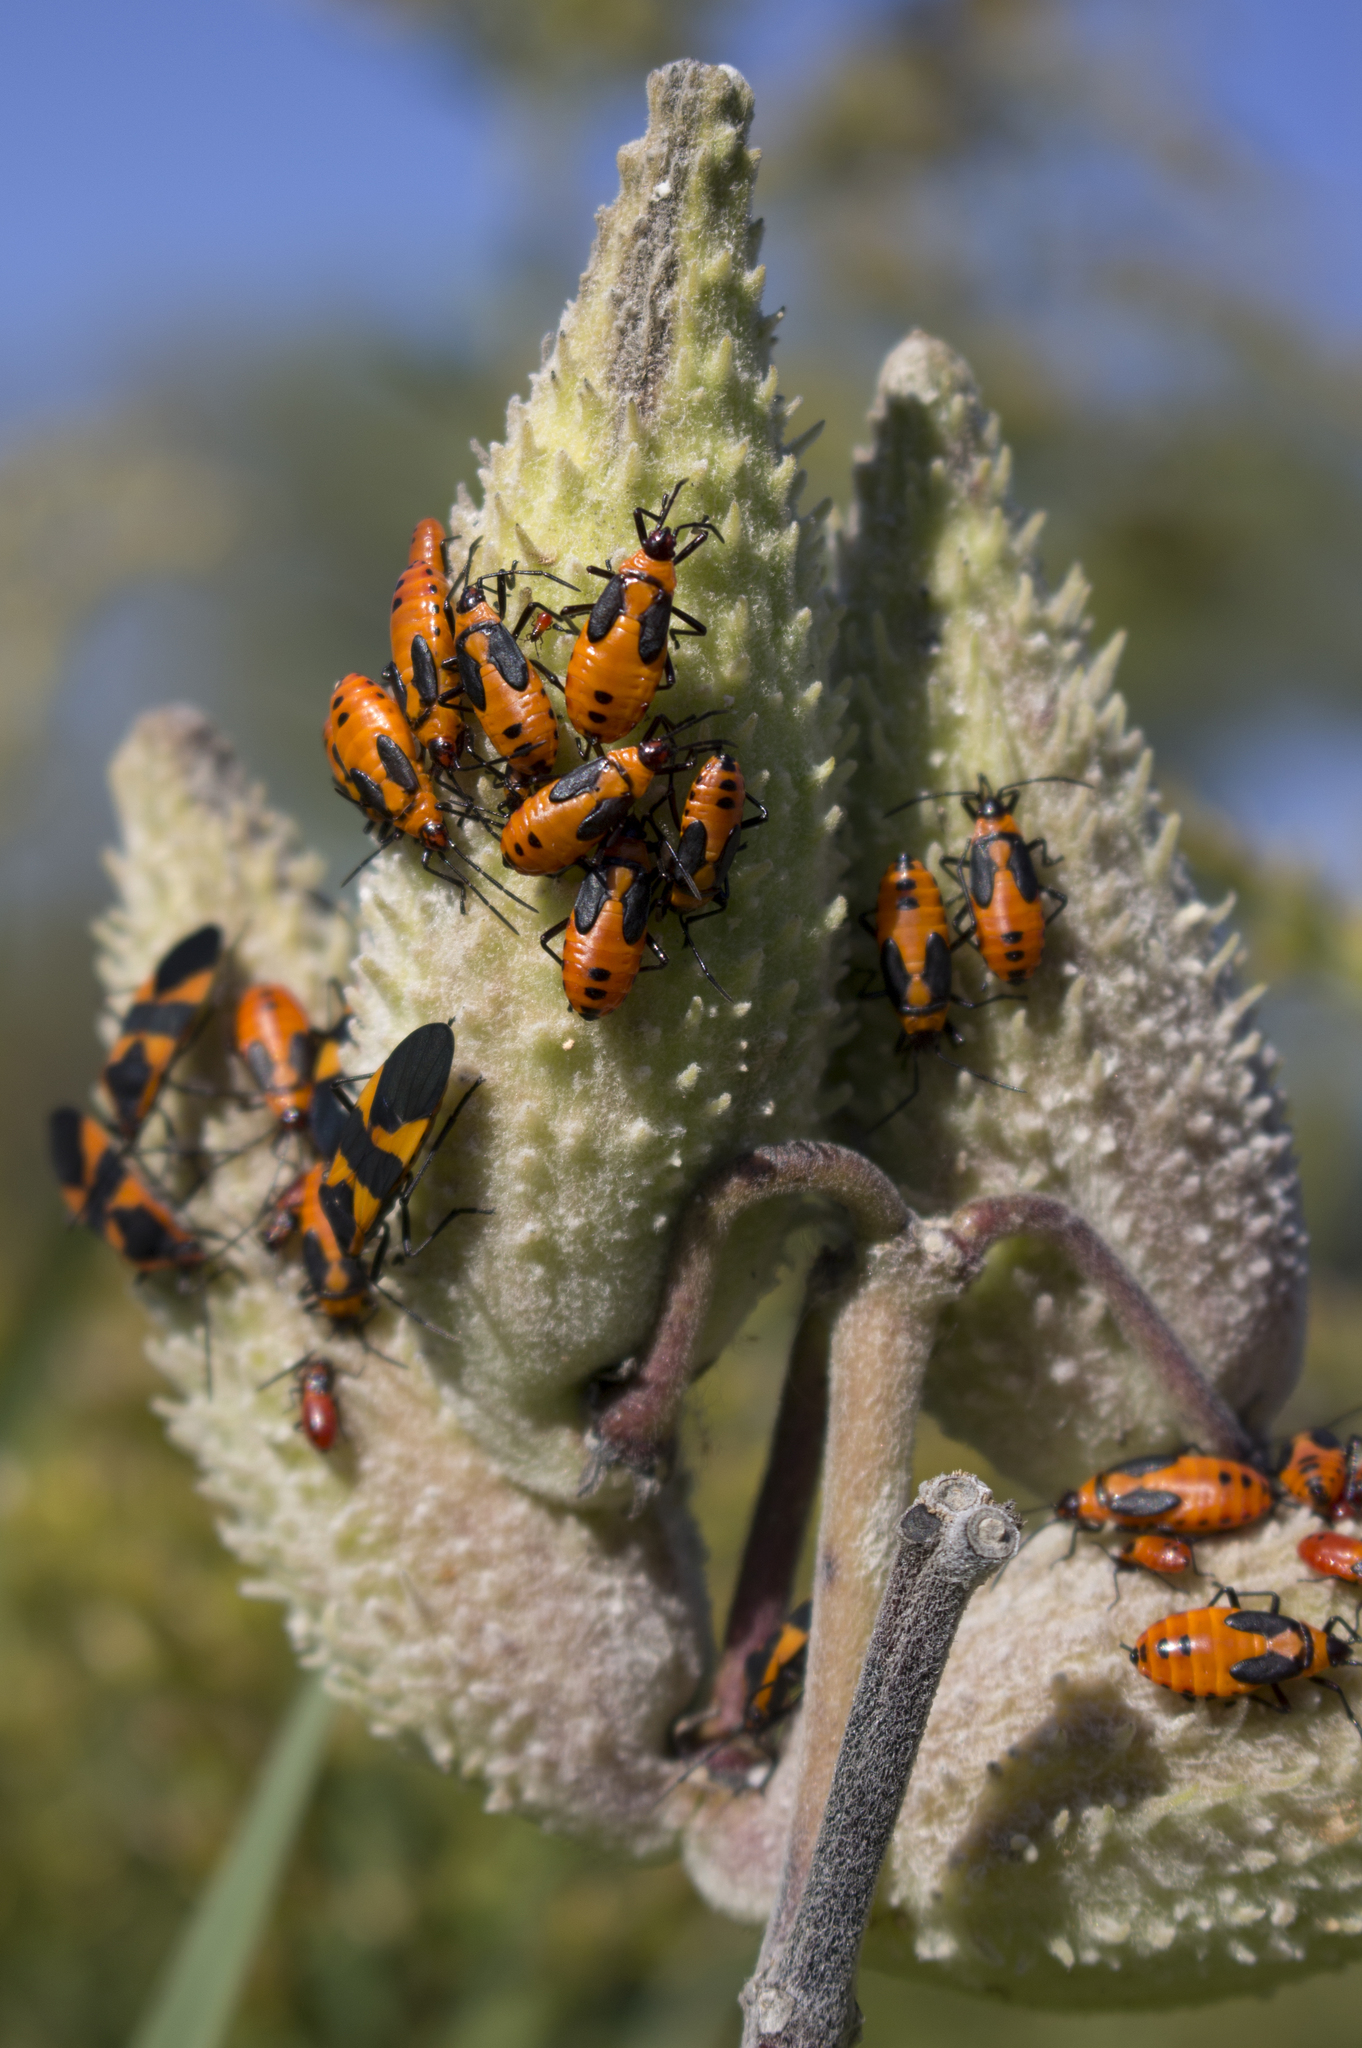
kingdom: Plantae
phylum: Tracheophyta
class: Magnoliopsida
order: Gentianales
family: Apocynaceae
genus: Asclepias
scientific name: Asclepias syriaca
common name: Common milkweed
